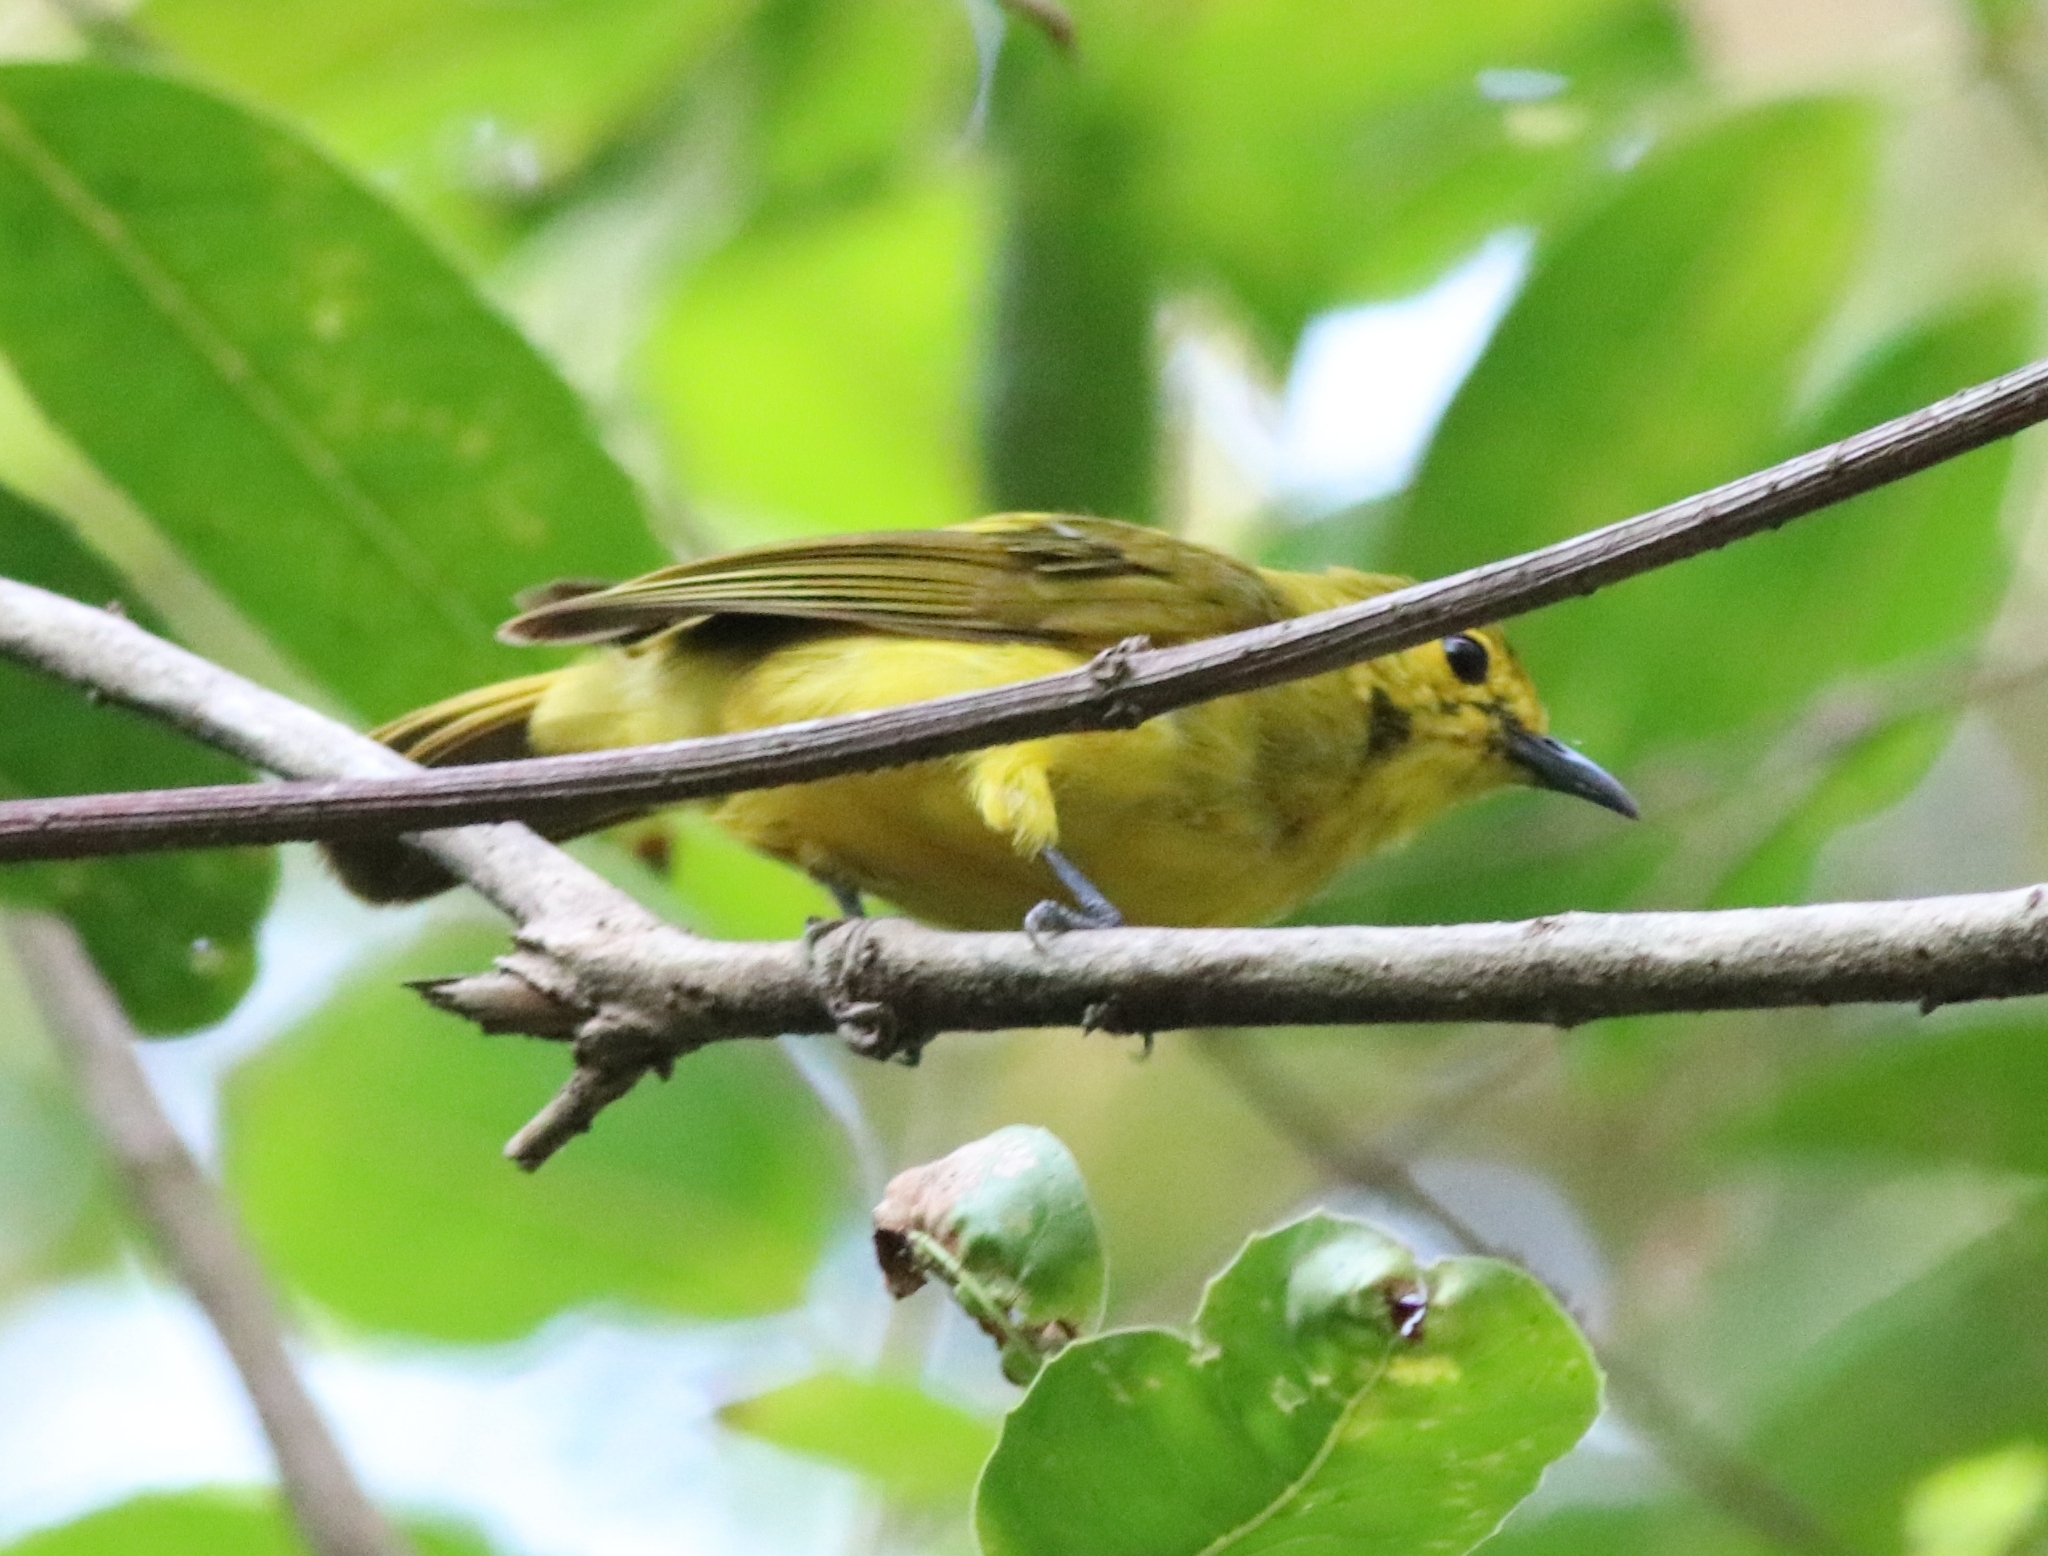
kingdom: Animalia
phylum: Chordata
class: Aves
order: Passeriformes
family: Pycnonotidae
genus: Acritillas
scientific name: Acritillas indica
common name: Yellow-browed bulbul
